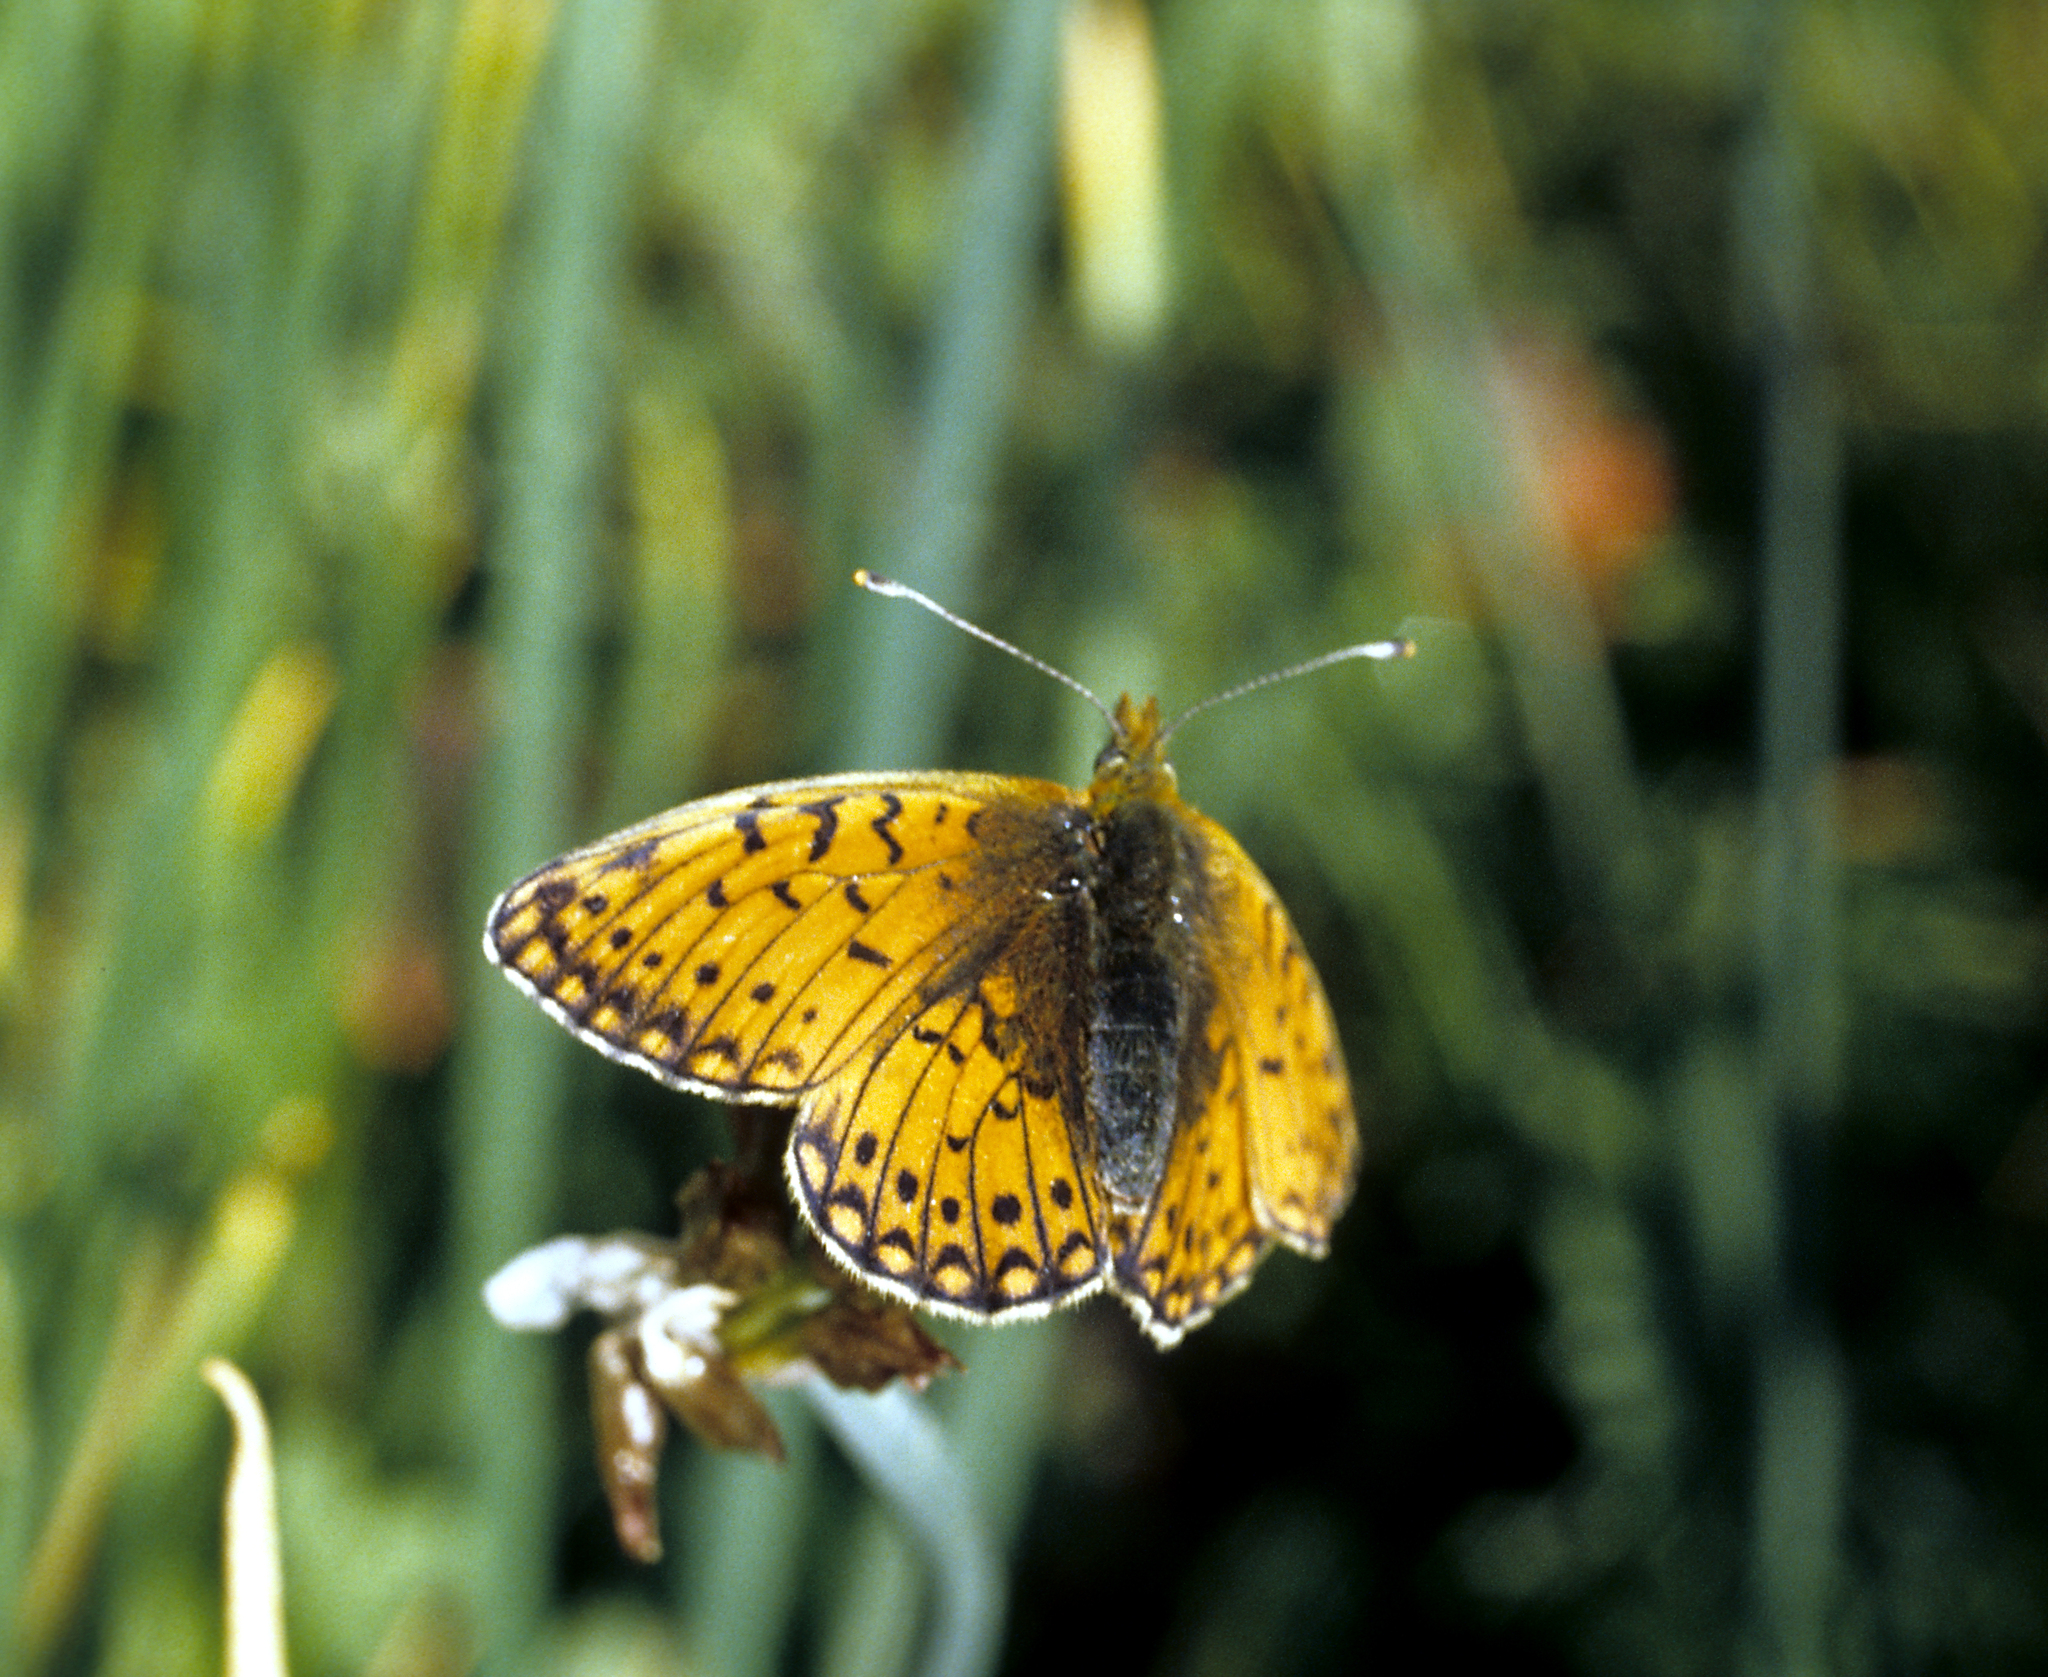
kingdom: Animalia
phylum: Arthropoda
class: Insecta
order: Lepidoptera
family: Nymphalidae
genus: Boloria
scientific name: Boloria erubescens
